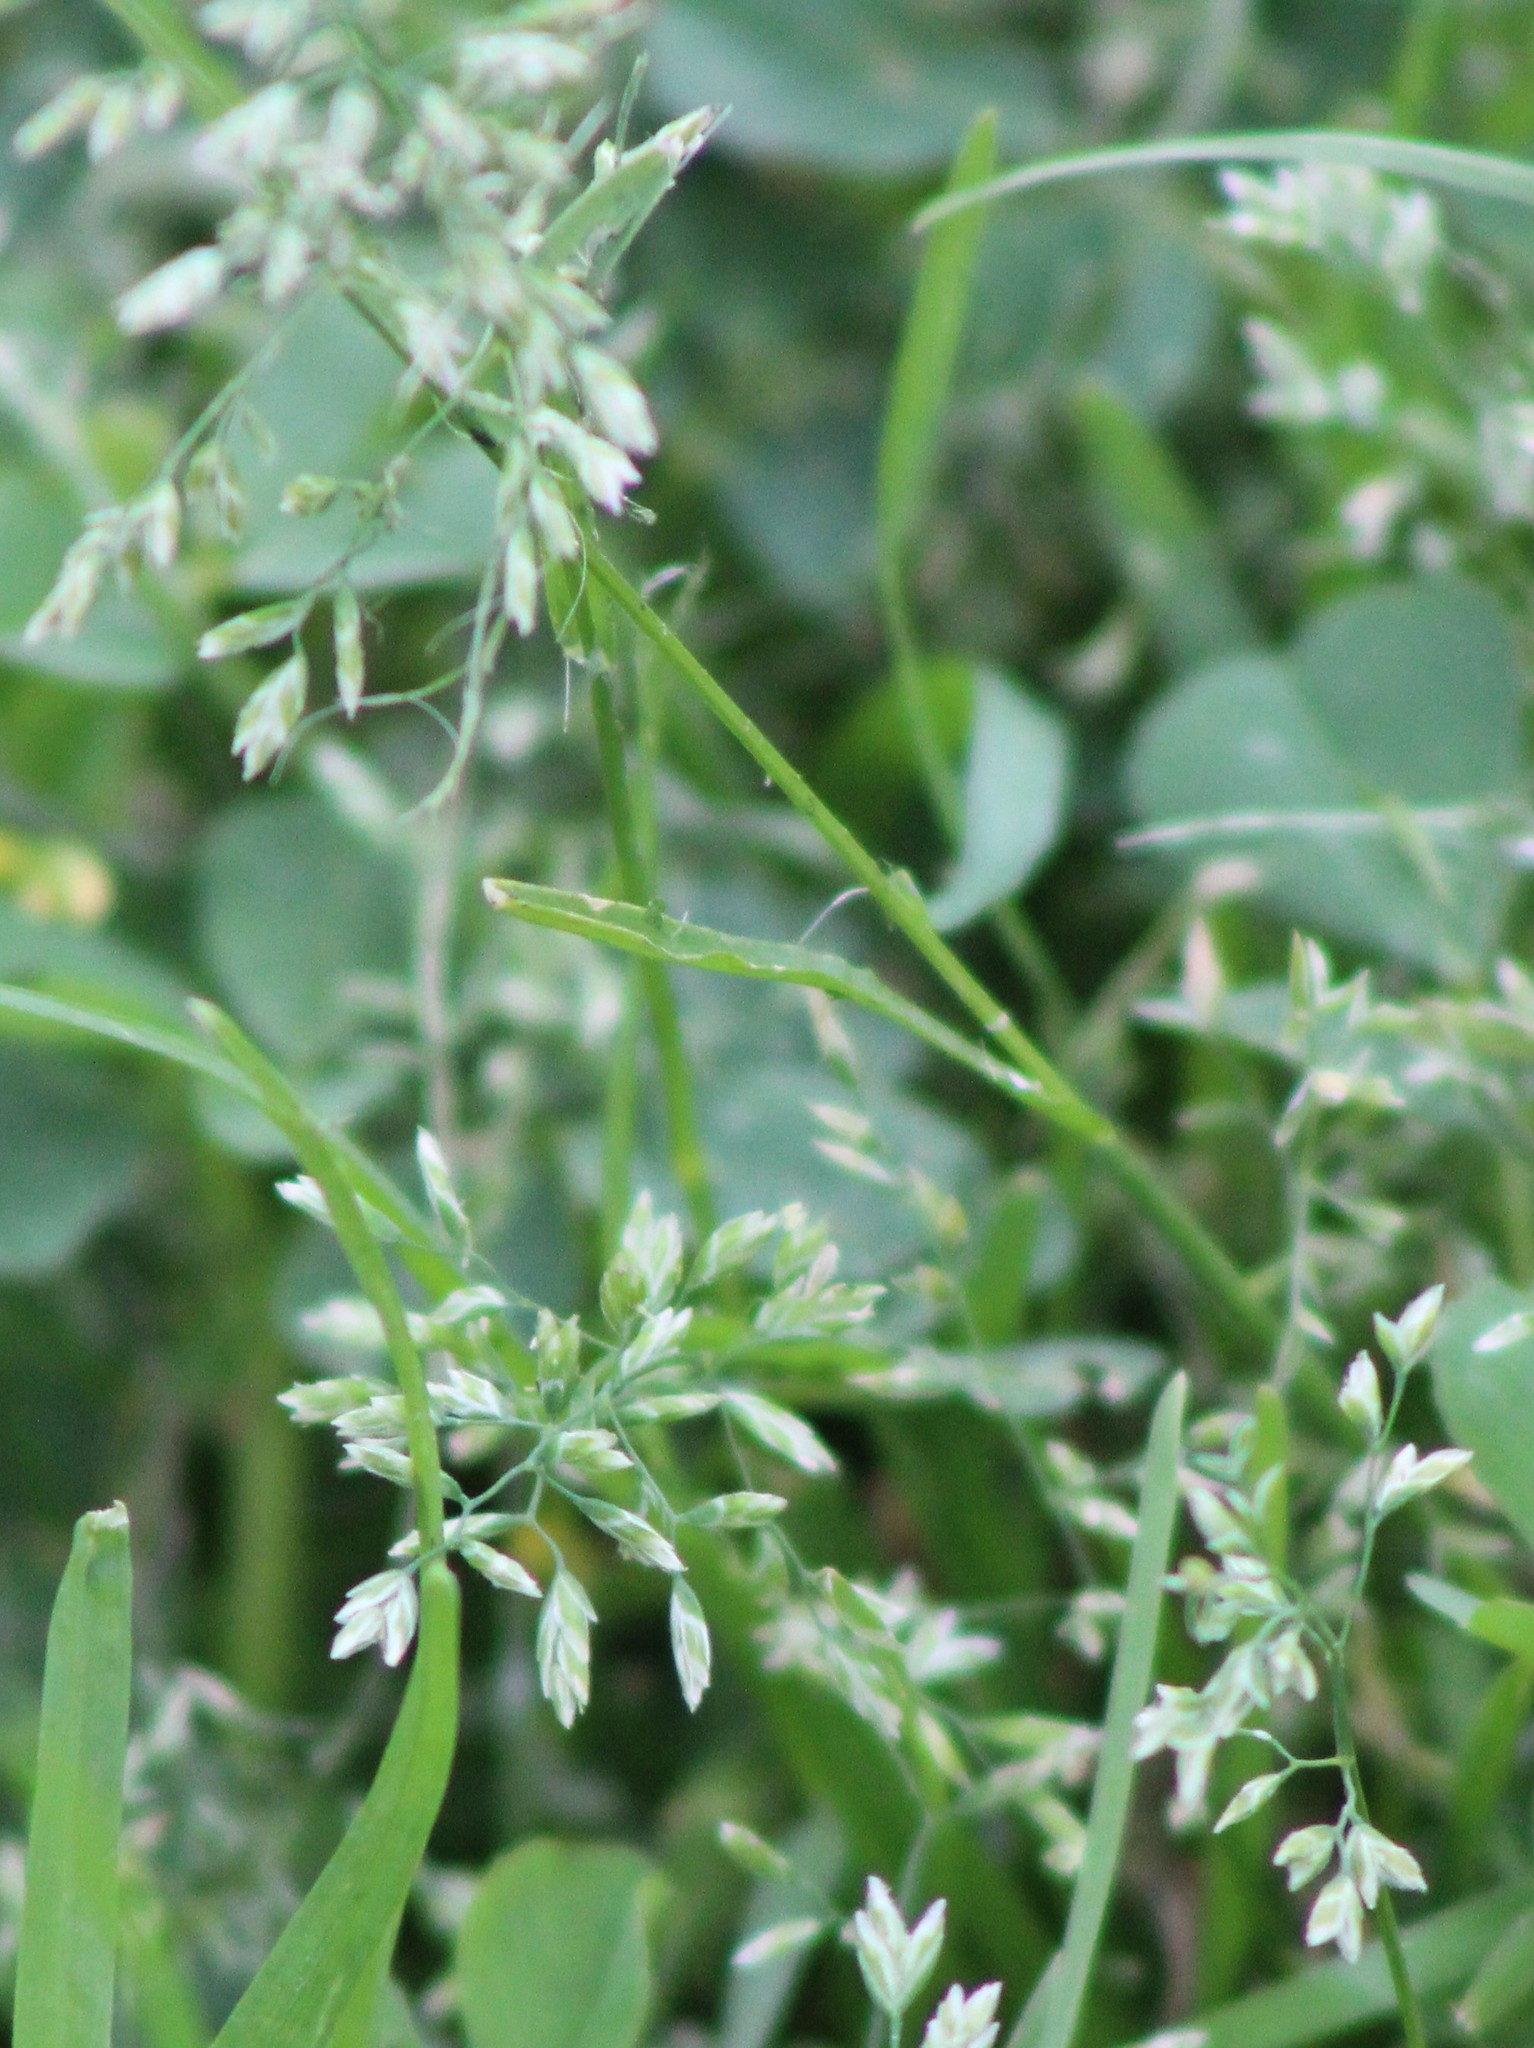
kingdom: Plantae
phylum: Tracheophyta
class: Liliopsida
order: Poales
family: Poaceae
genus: Poa
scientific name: Poa annua
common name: Annual bluegrass
